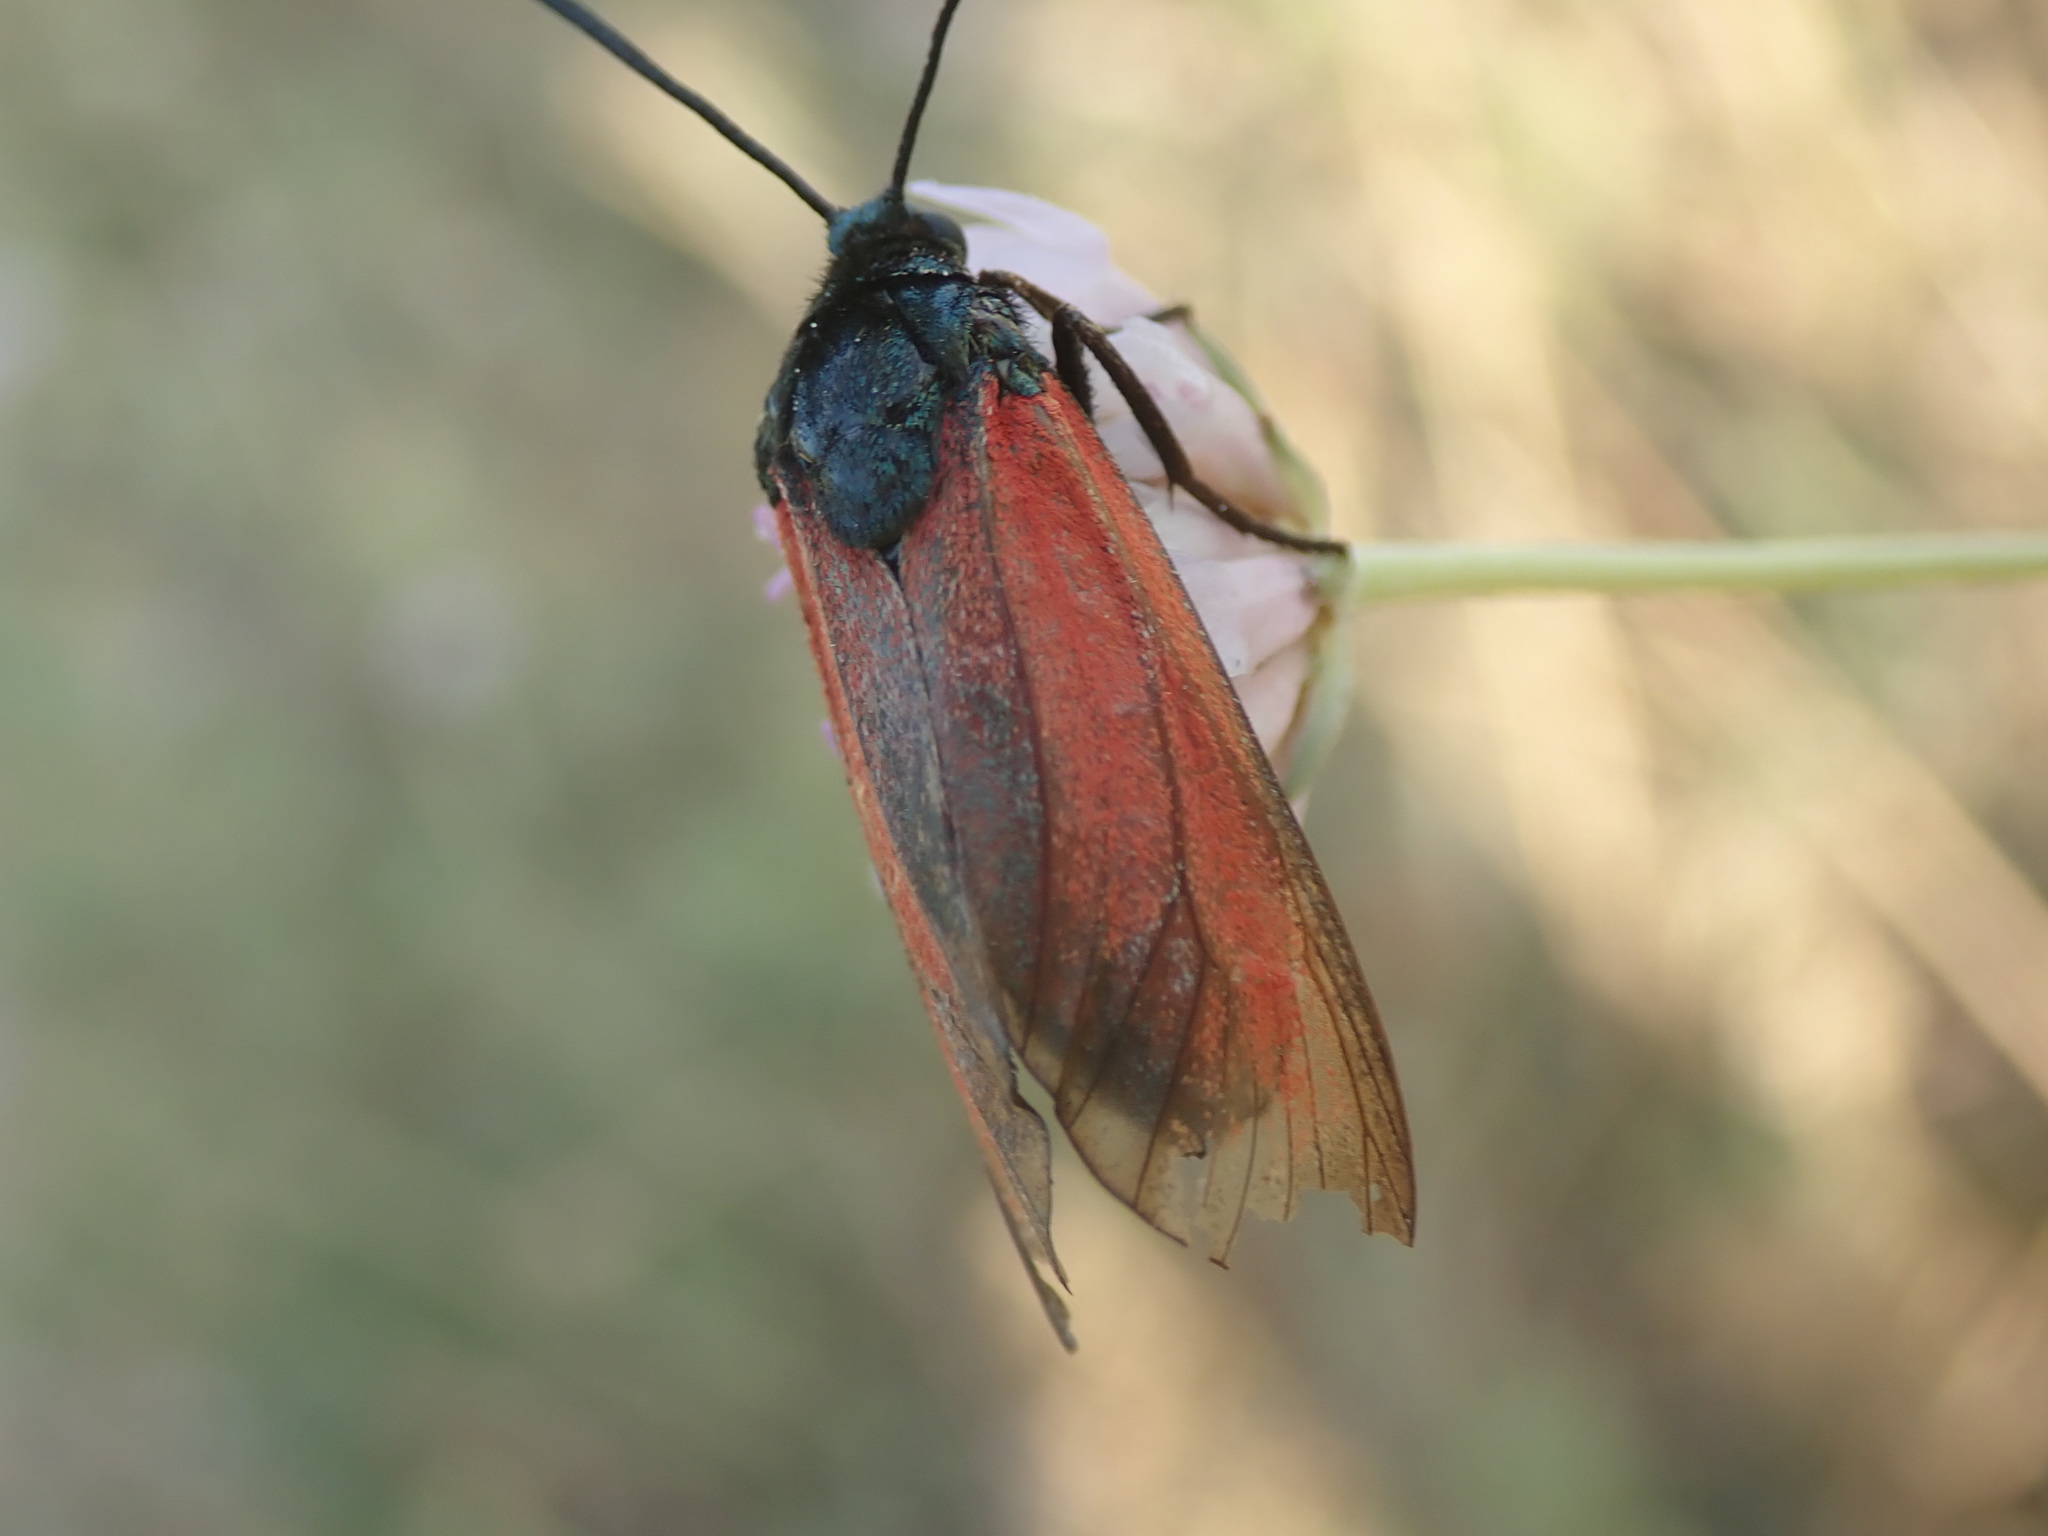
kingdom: Animalia
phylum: Arthropoda
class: Insecta
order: Lepidoptera
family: Zygaenidae
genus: Zygaena
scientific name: Zygaena erythrus
